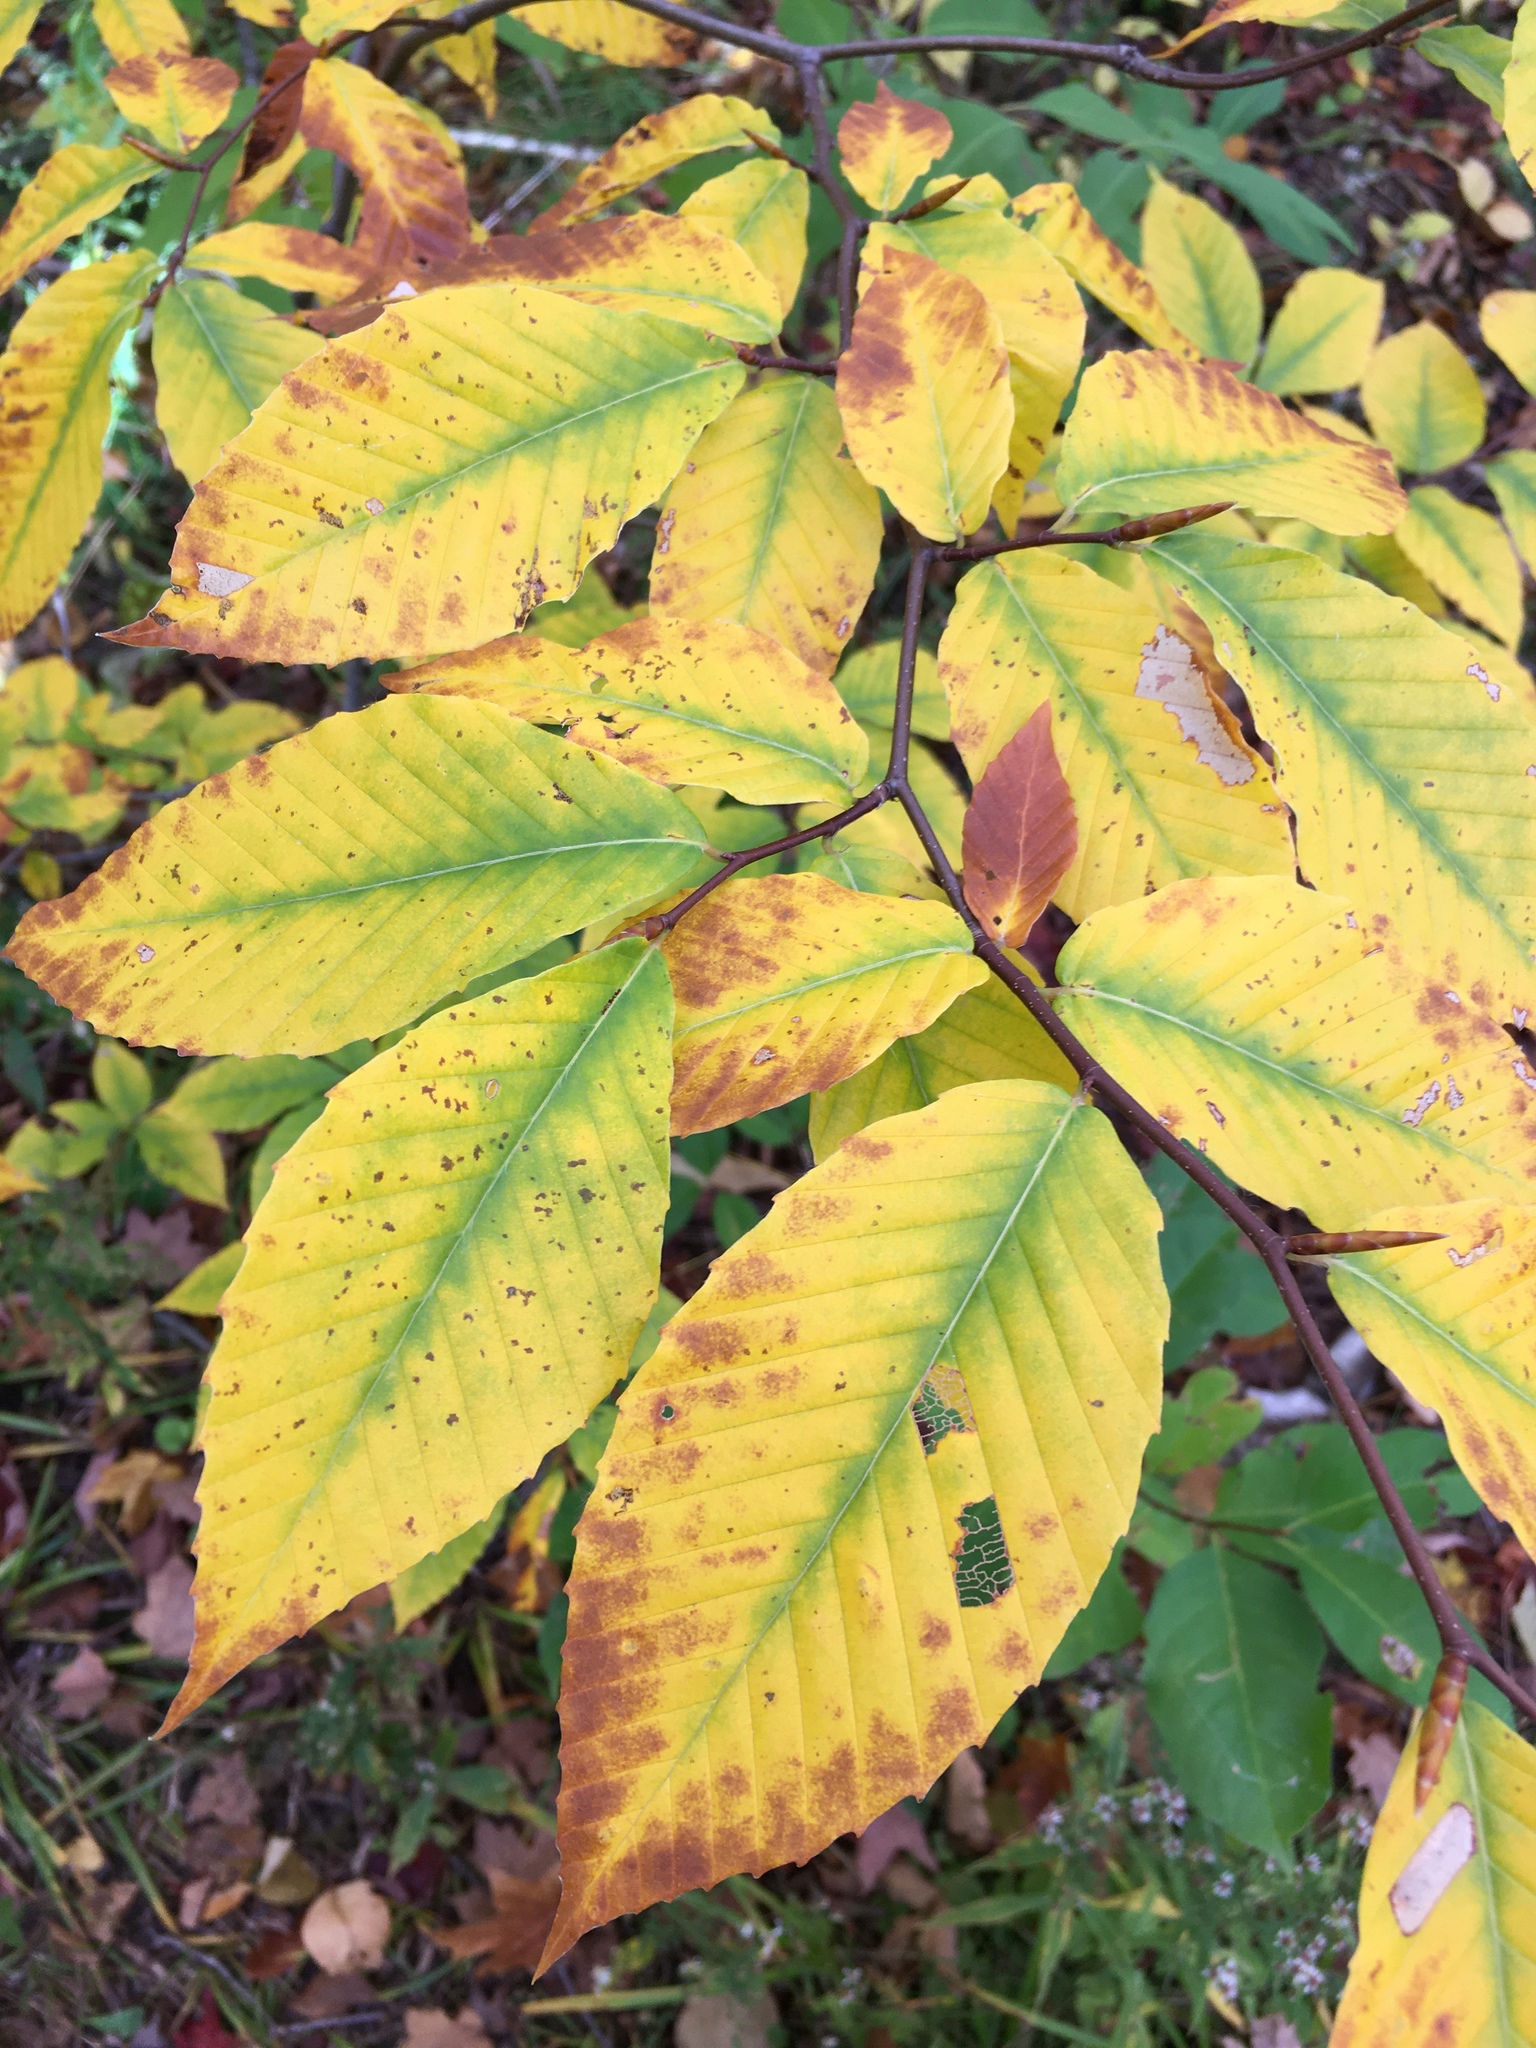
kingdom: Plantae
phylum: Tracheophyta
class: Magnoliopsida
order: Fagales
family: Fagaceae
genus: Fagus
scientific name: Fagus grandifolia
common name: American beech
